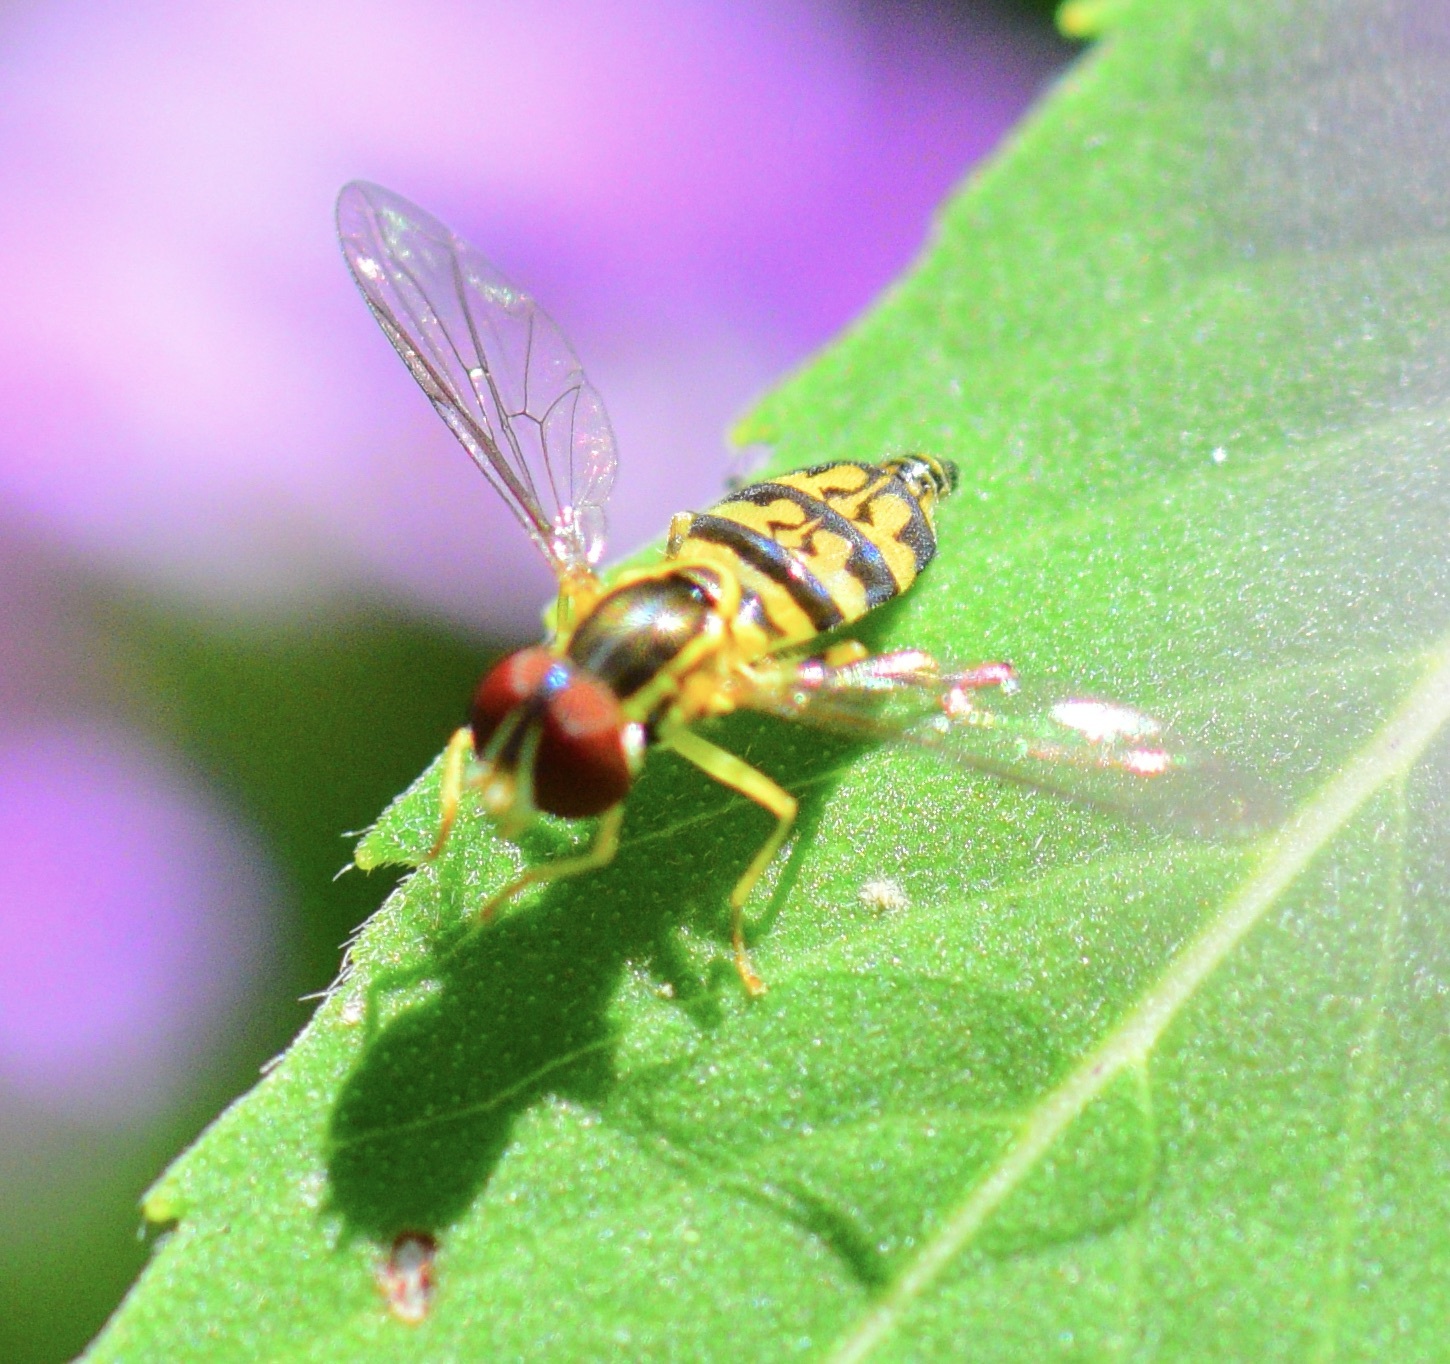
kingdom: Animalia
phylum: Arthropoda
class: Insecta
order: Diptera
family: Syrphidae
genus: Toxomerus
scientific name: Toxomerus geminatus
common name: Eastern calligrapher
